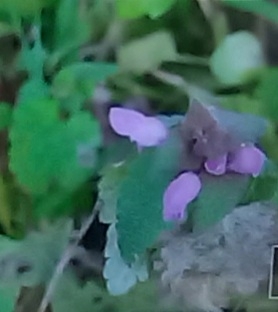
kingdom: Plantae
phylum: Tracheophyta
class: Magnoliopsida
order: Lamiales
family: Lamiaceae
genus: Lamium
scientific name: Lamium purpureum
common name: Red dead-nettle
